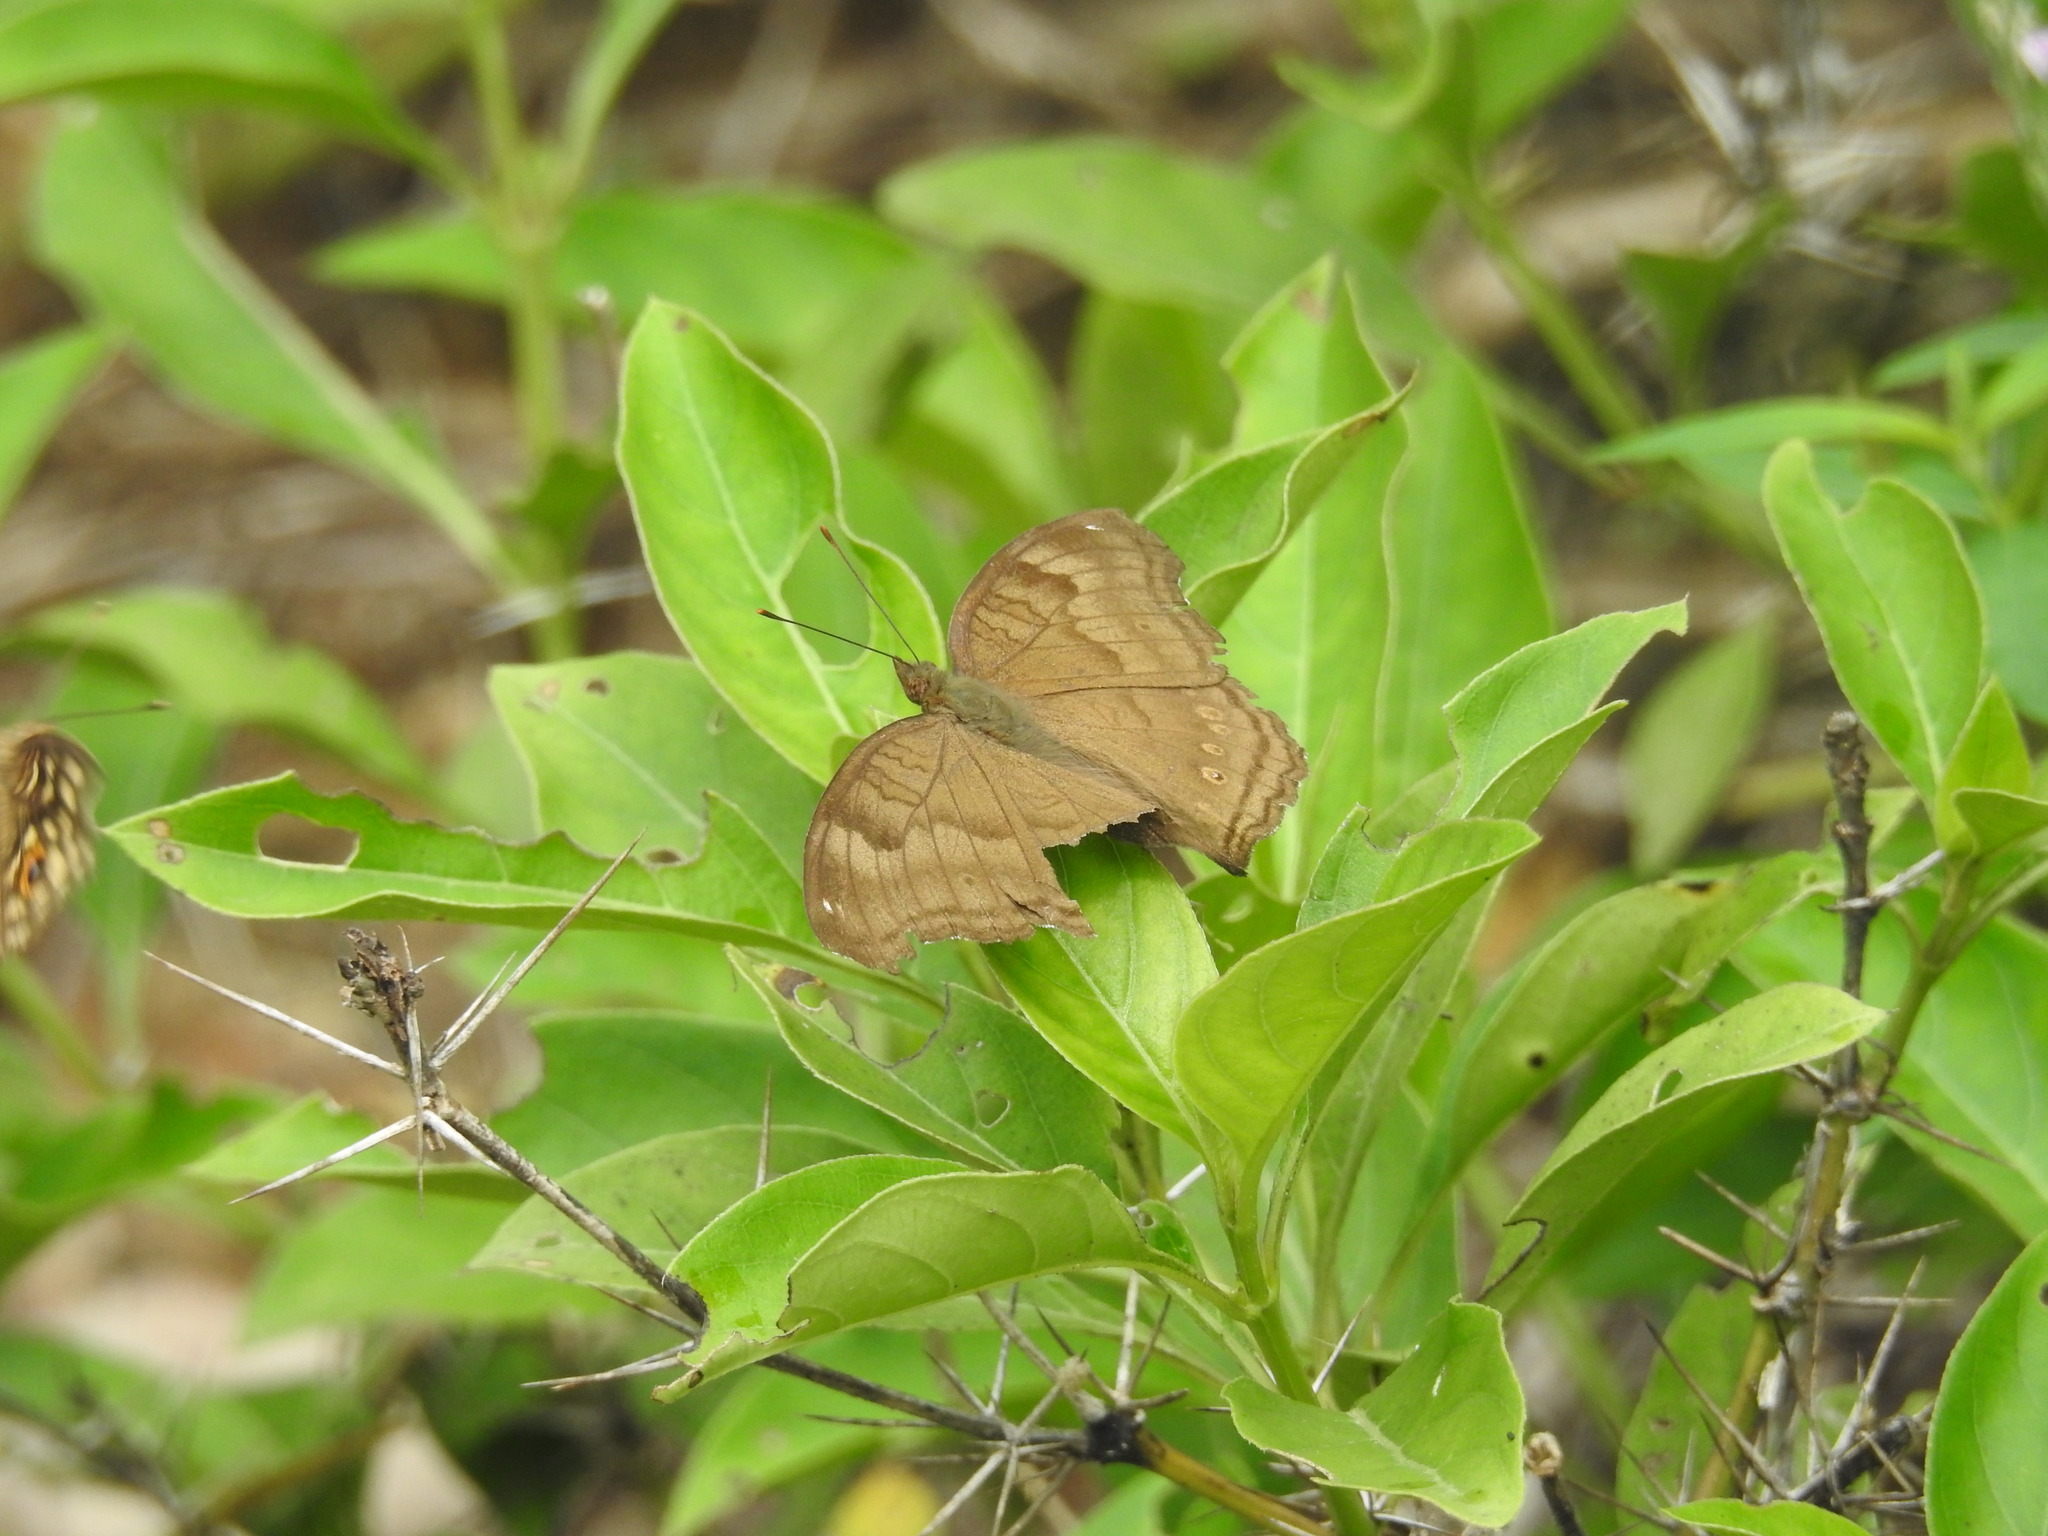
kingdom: Animalia
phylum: Arthropoda
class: Insecta
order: Lepidoptera
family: Nymphalidae
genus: Junonia
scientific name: Junonia iphita
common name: Chocolate pansy
